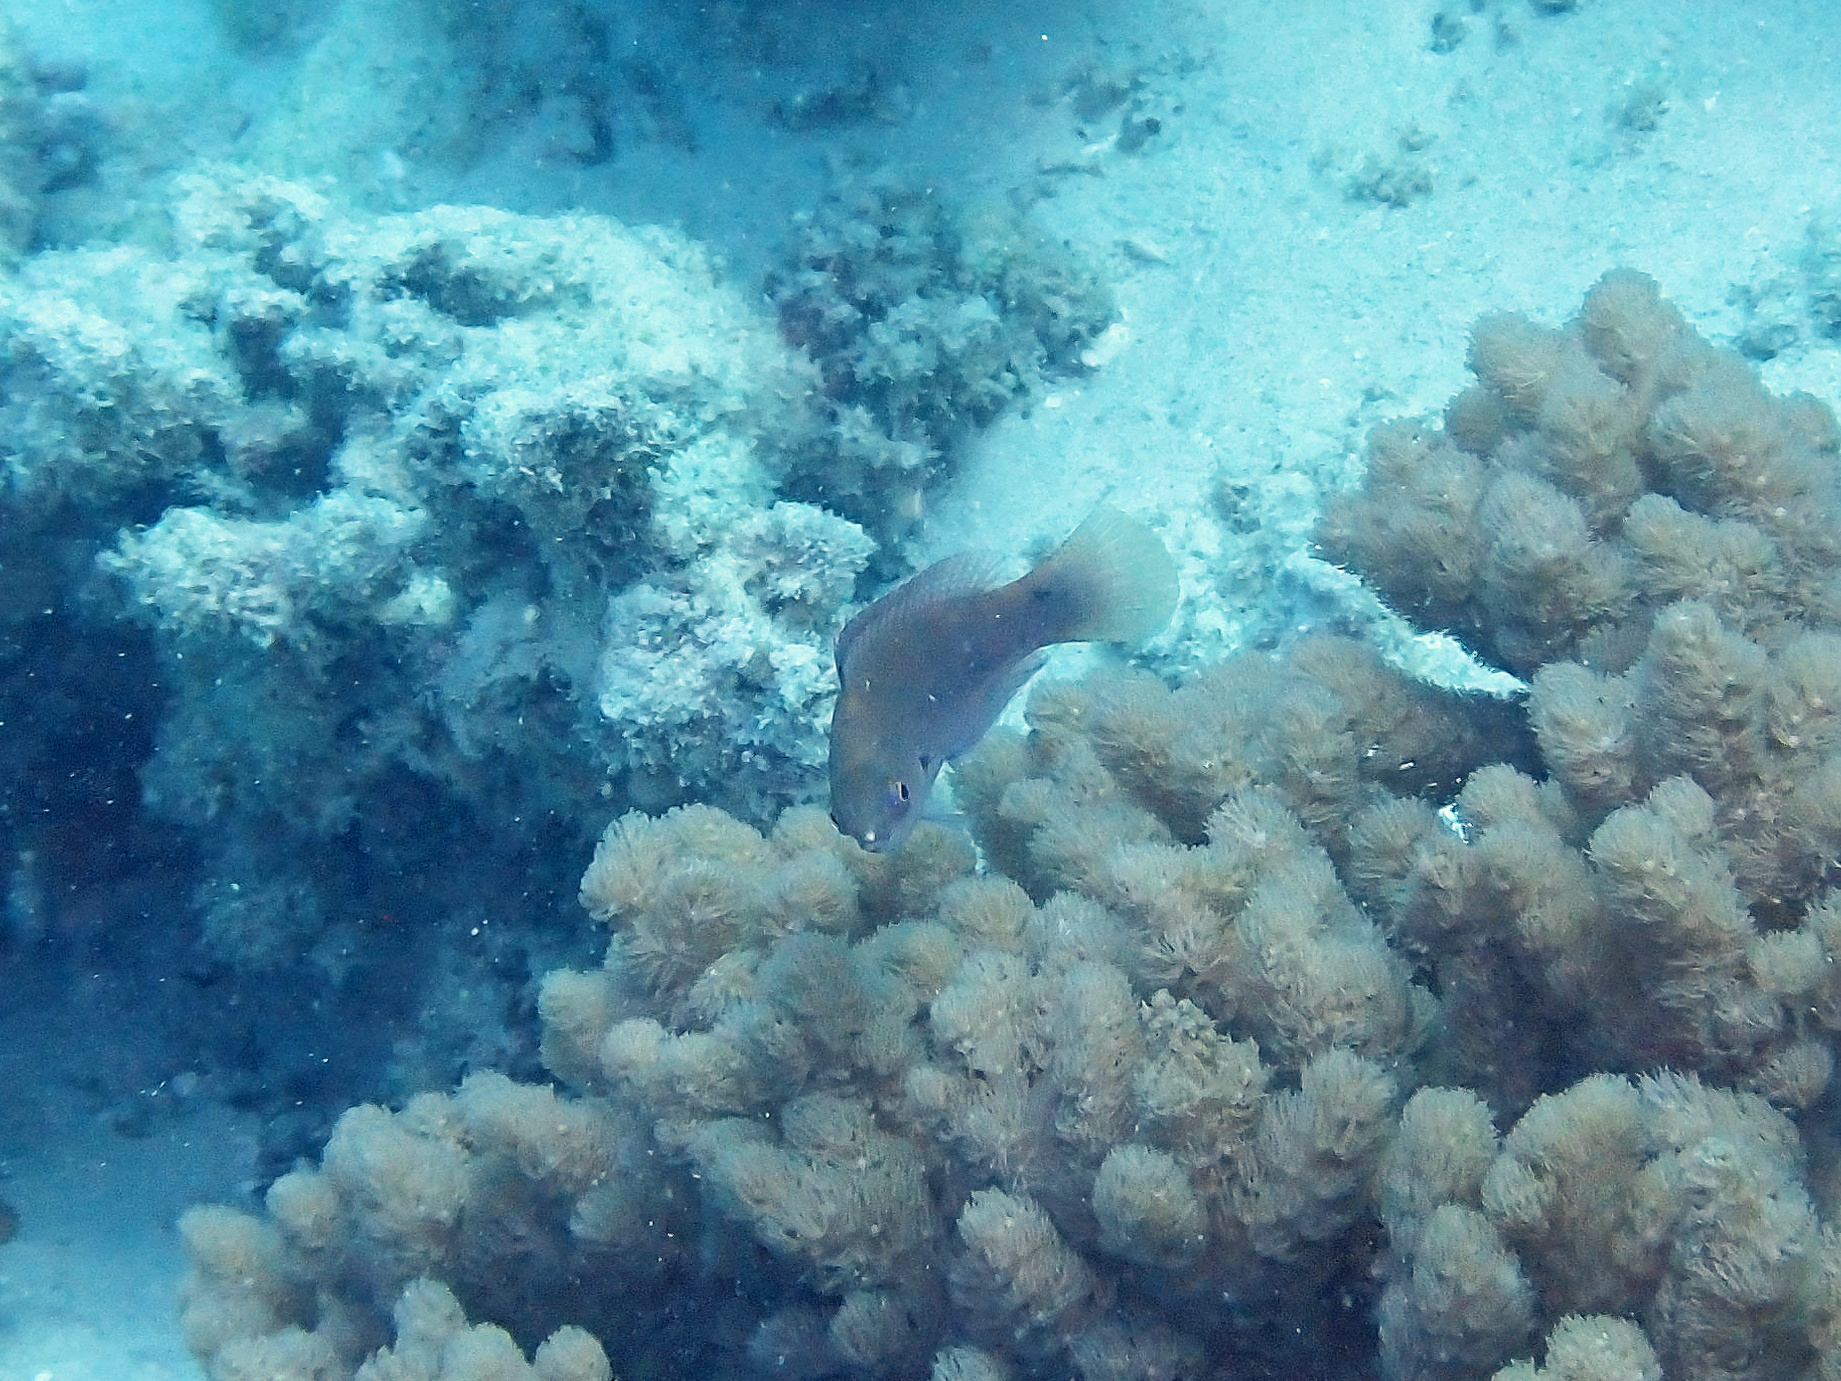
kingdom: Animalia
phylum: Chordata
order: Perciformes
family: Labridae
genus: Cirrhilabrus
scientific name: Cirrhilabrus punctatus
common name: Dotted wrasse
